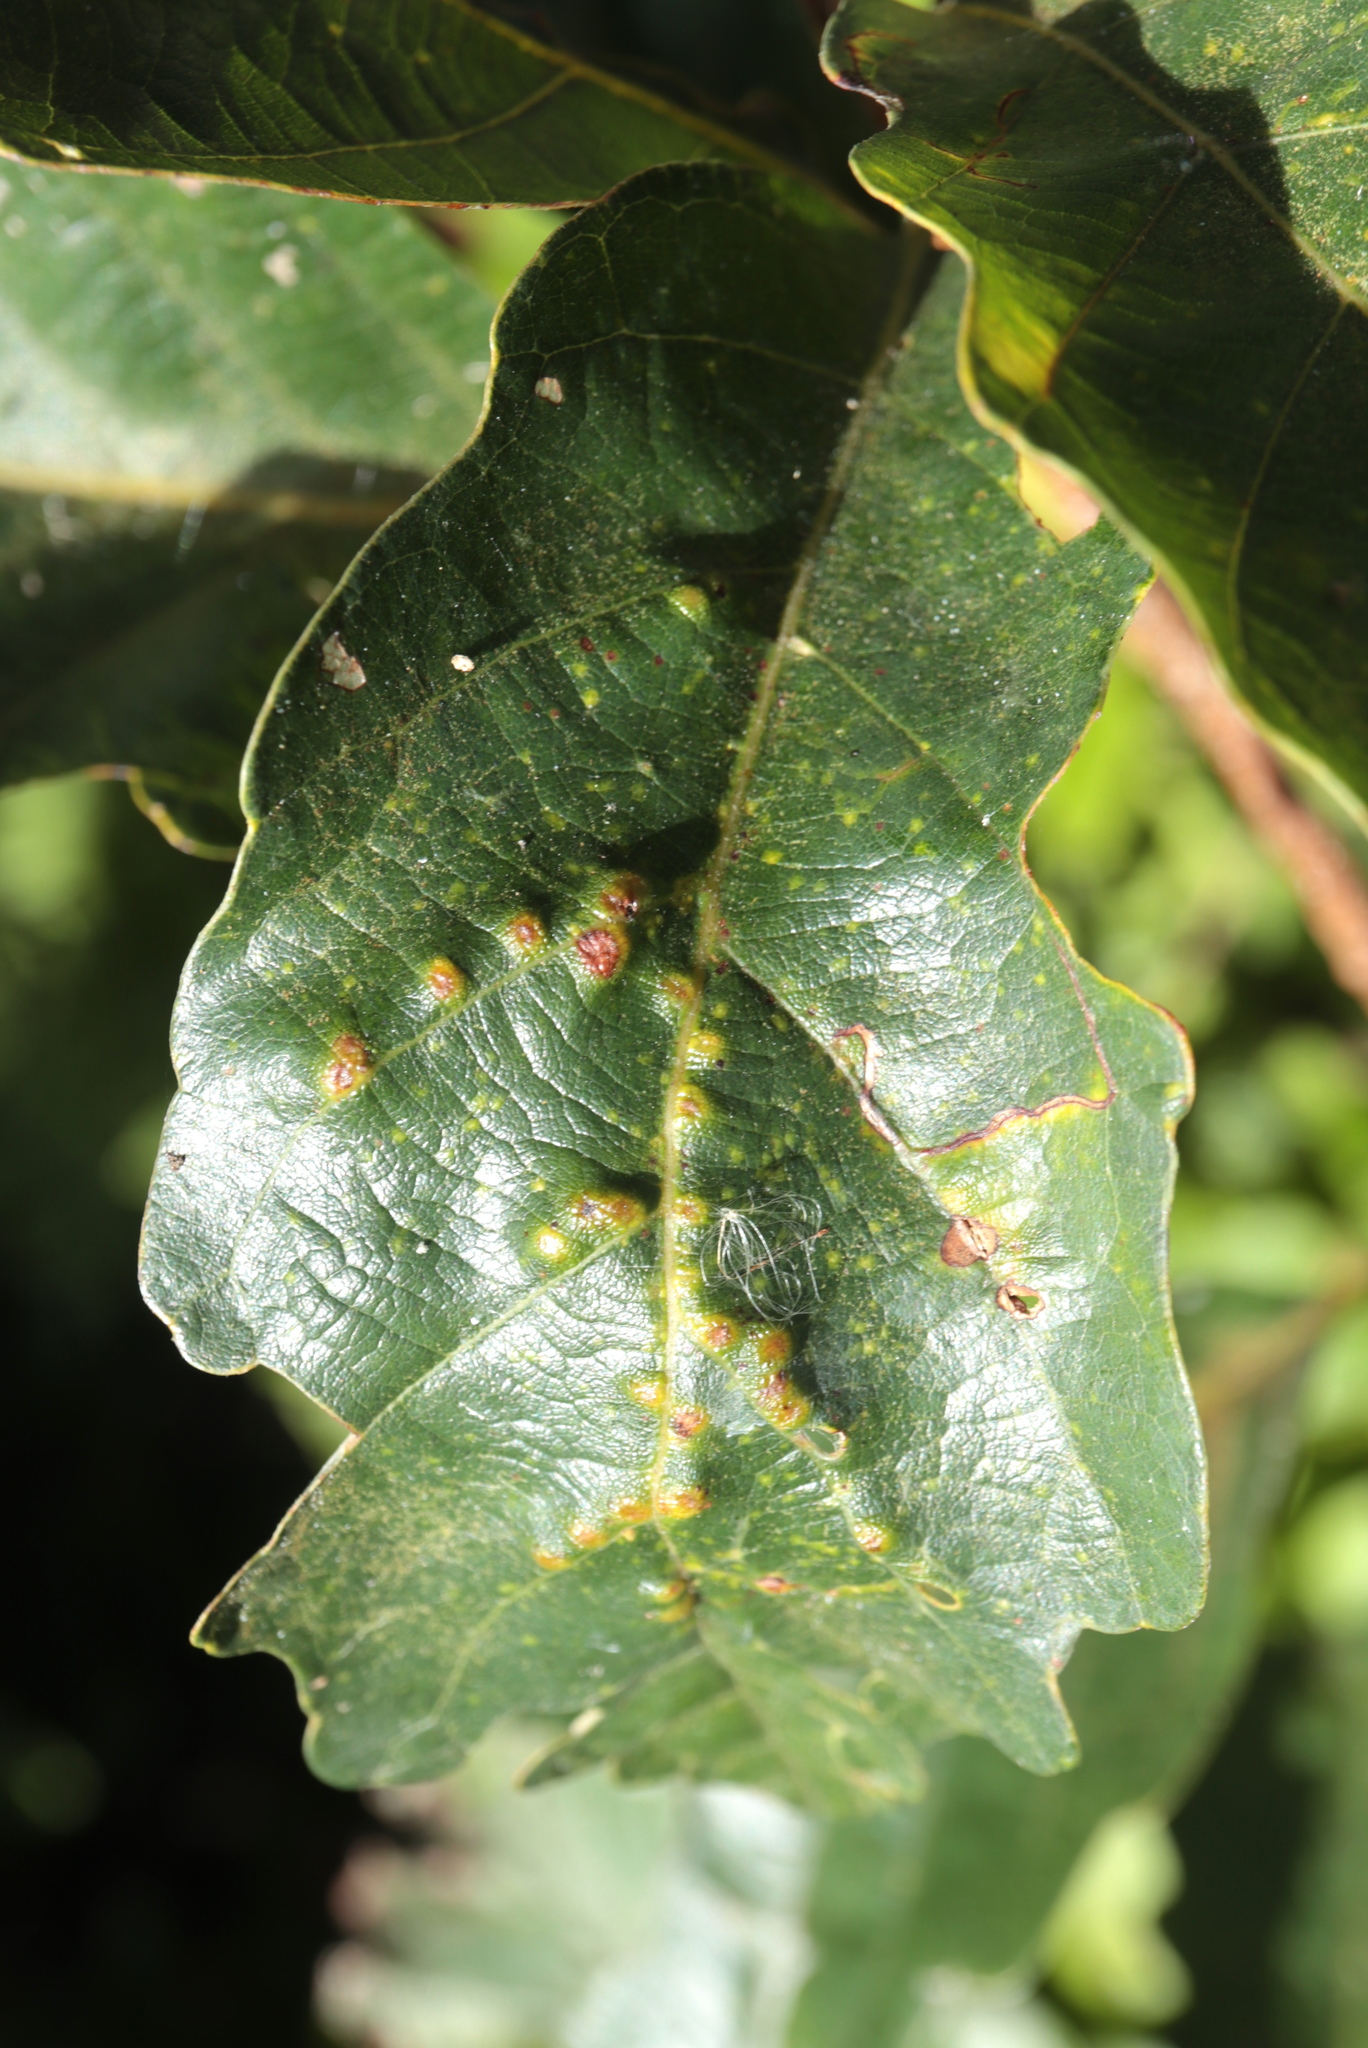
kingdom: Animalia
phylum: Arthropoda
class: Insecta
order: Hymenoptera
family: Cynipidae
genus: Neuroterus
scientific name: Neuroterus quercusverrucarum
